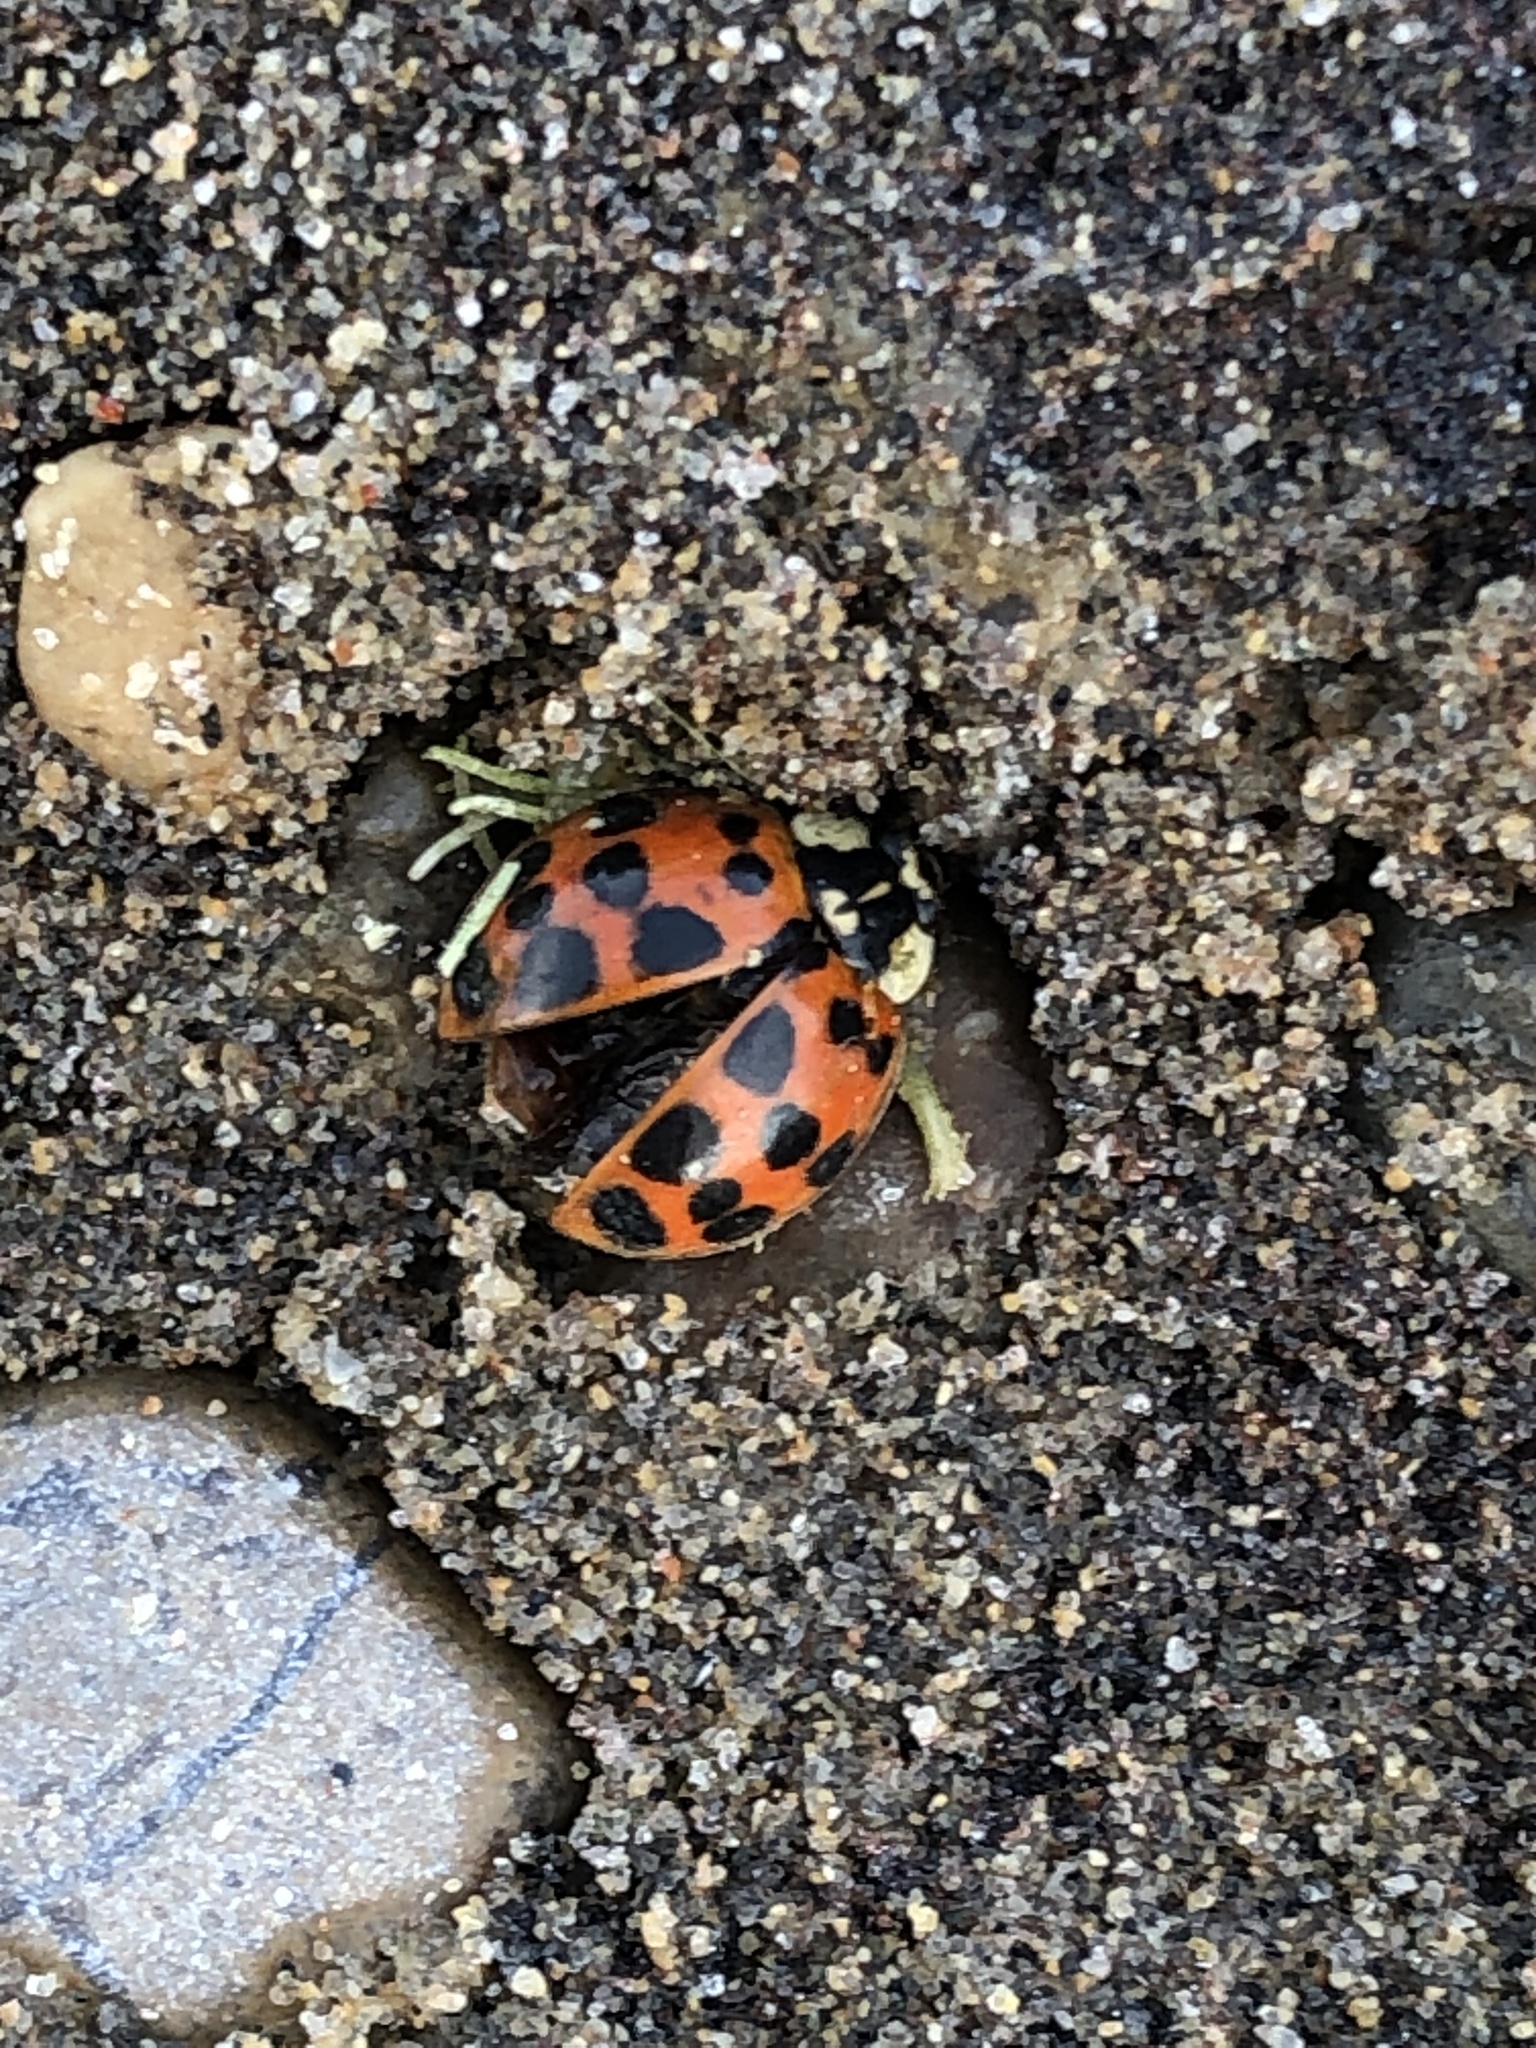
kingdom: Animalia
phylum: Arthropoda
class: Insecta
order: Coleoptera
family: Coccinellidae
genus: Harmonia
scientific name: Harmonia axyridis
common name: Harlequin ladybird
